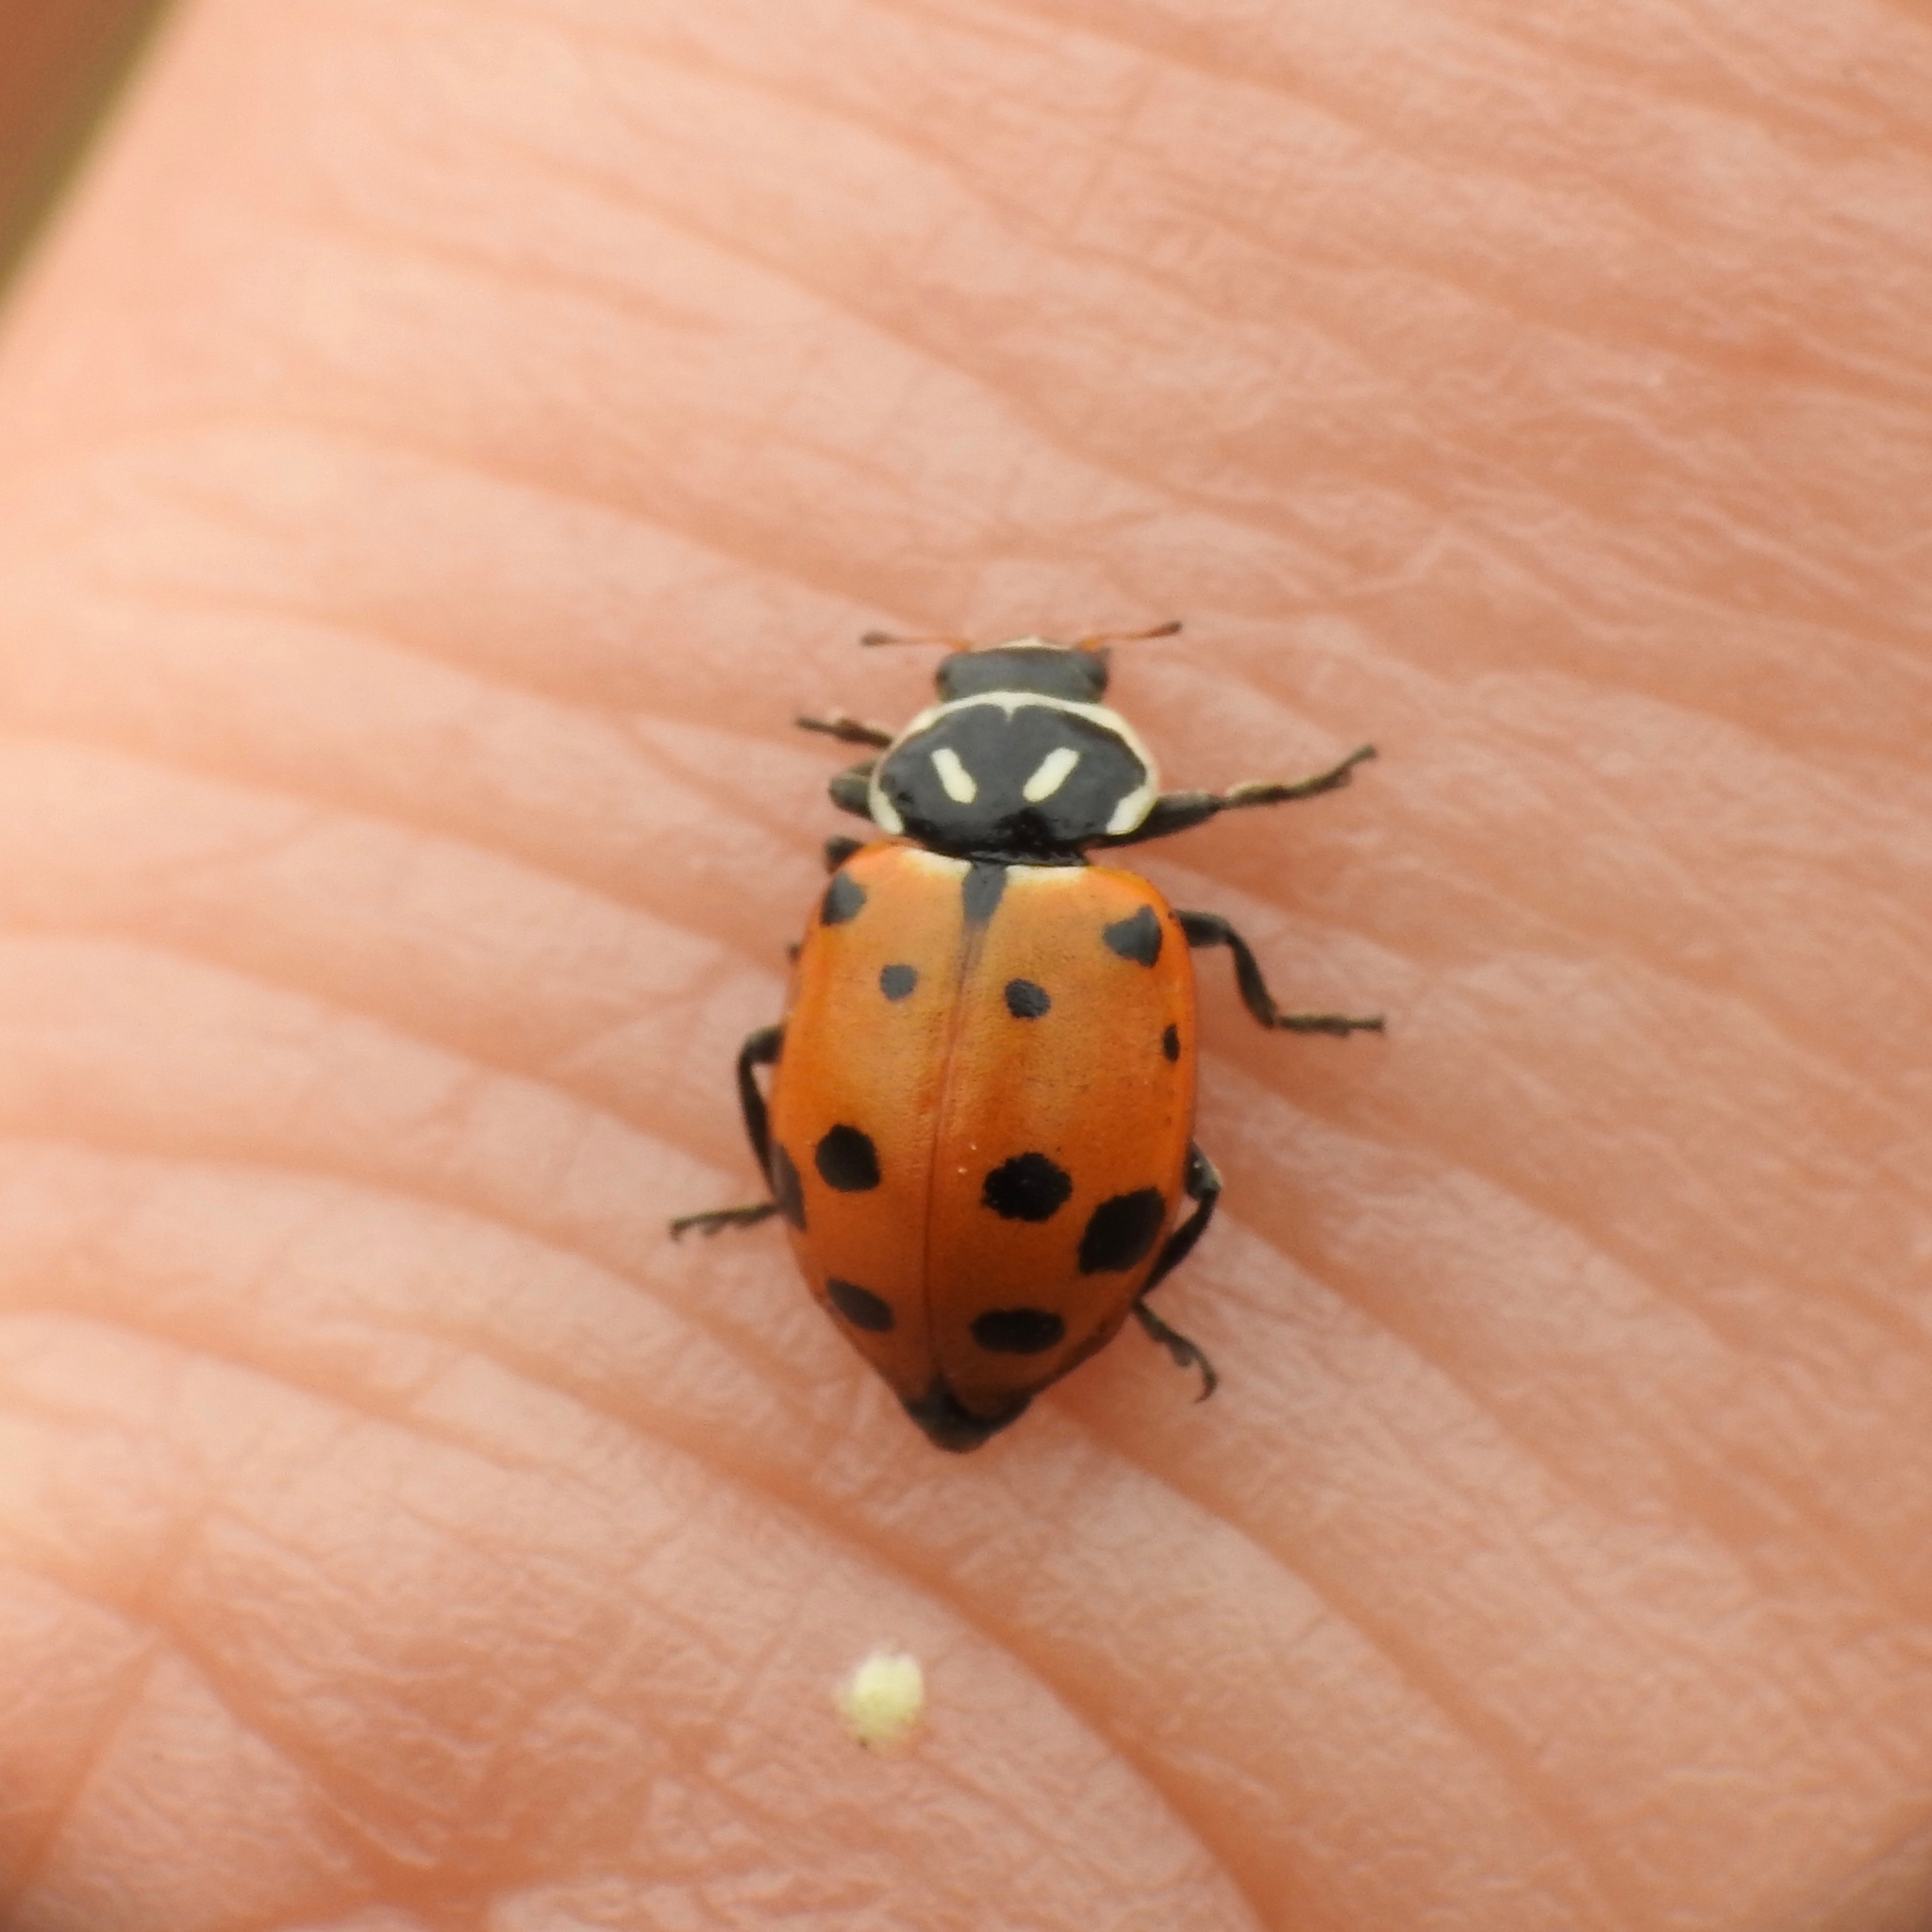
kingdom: Animalia
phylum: Arthropoda
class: Insecta
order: Coleoptera
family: Coccinellidae
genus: Hippodamia
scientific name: Hippodamia convergens
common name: Convergent lady beetle
